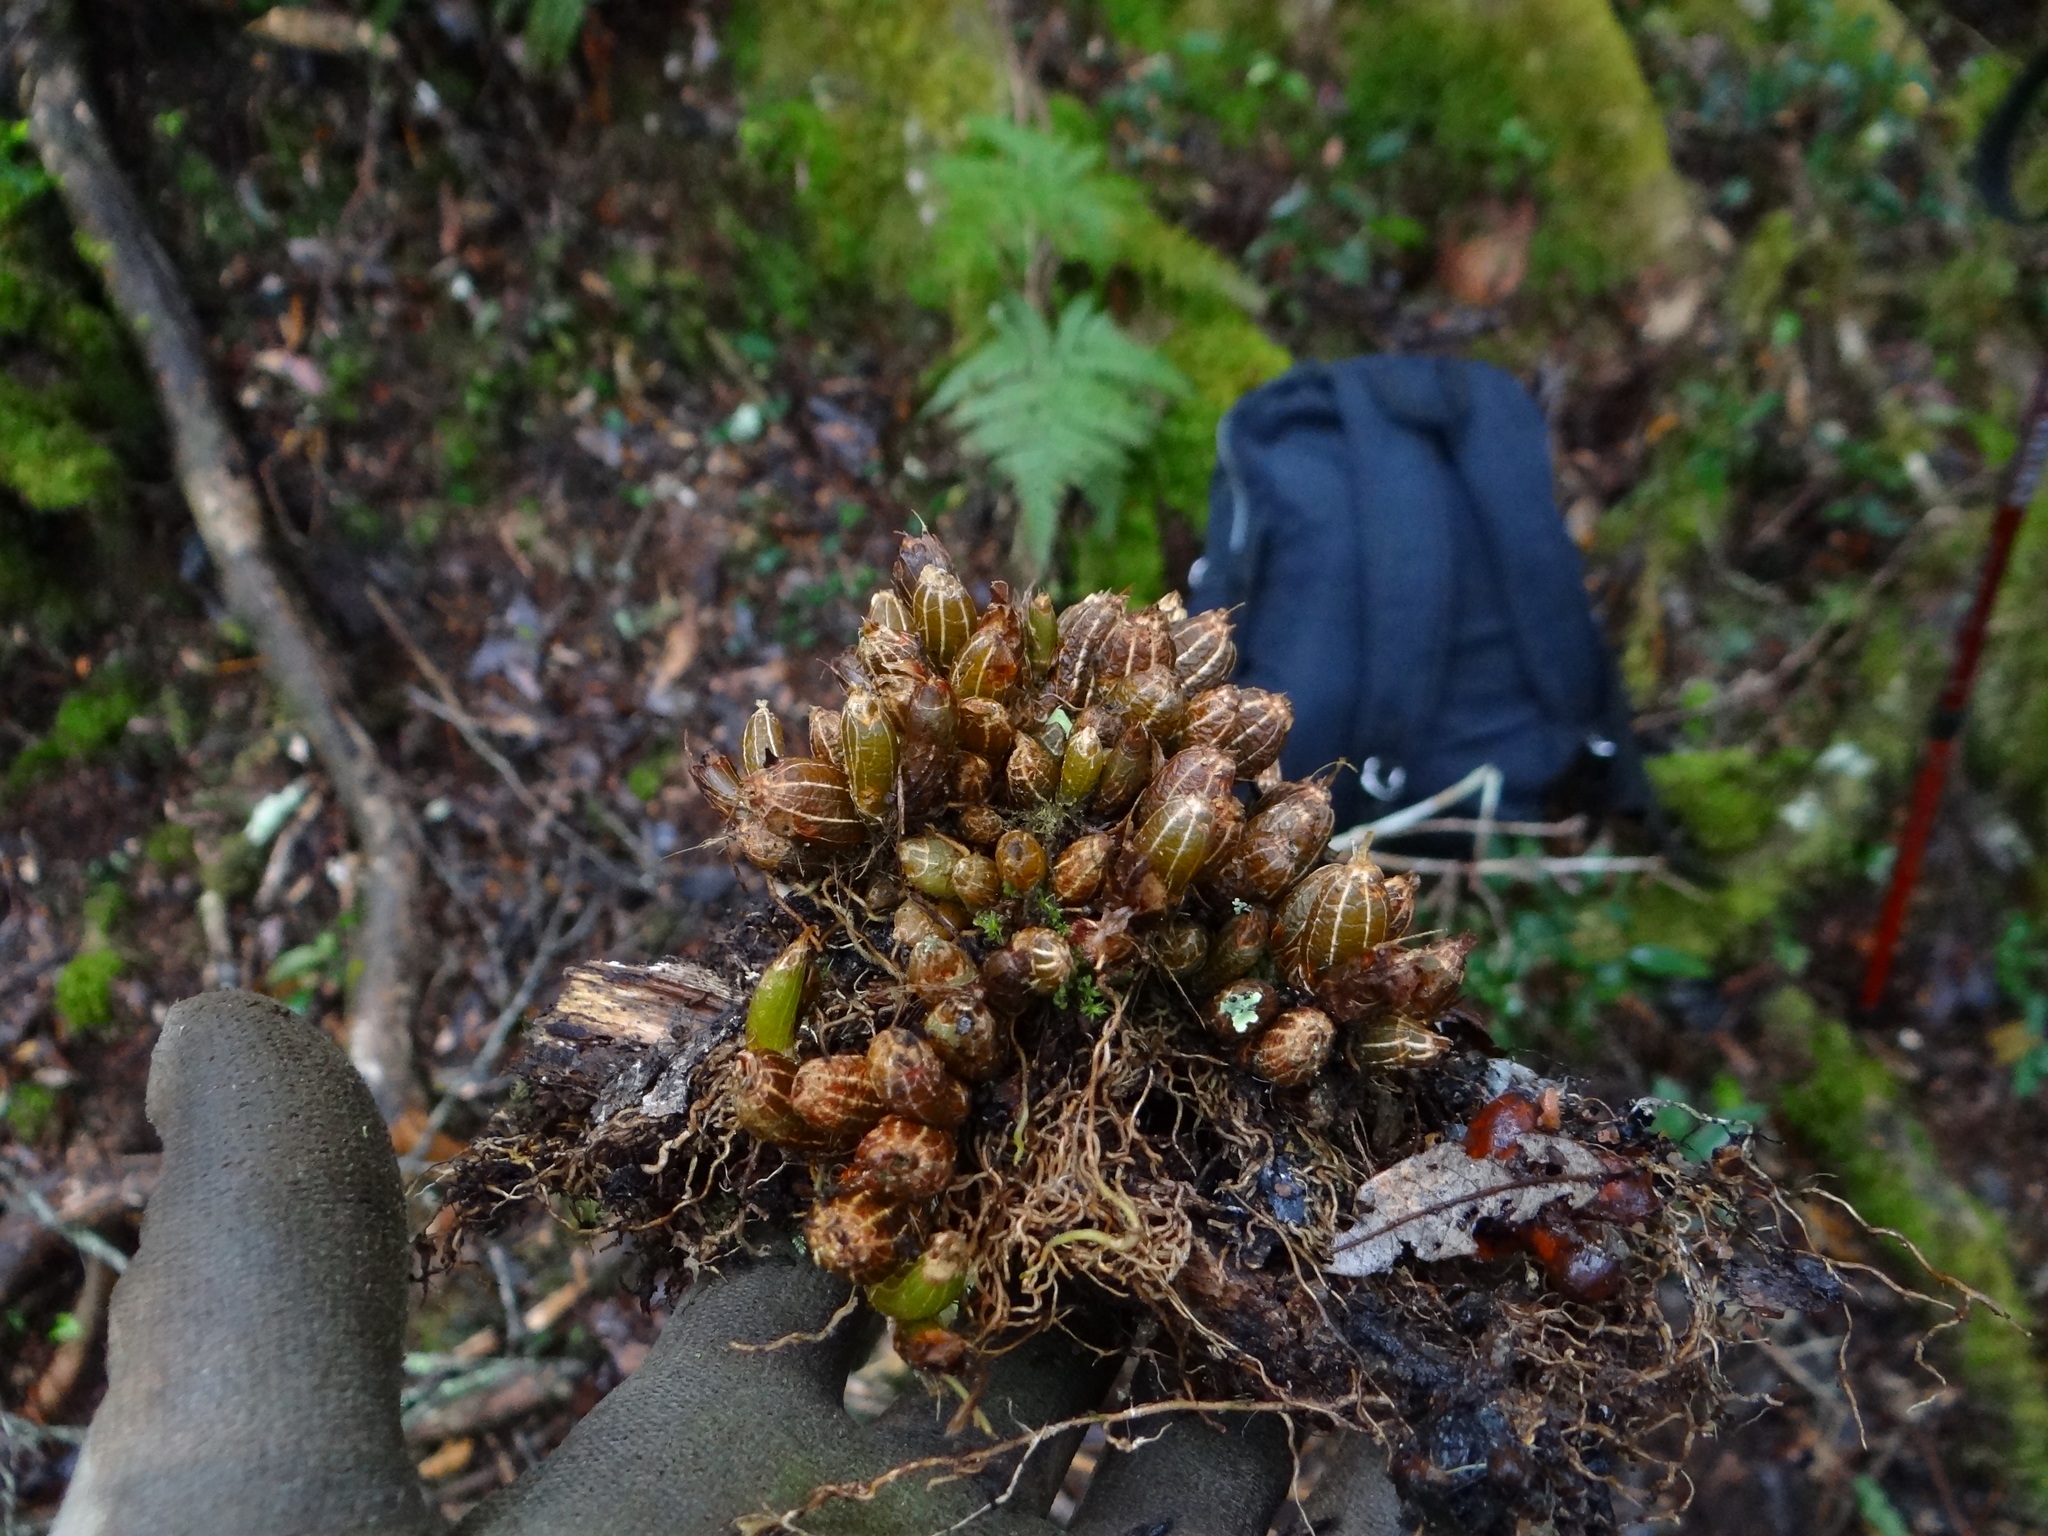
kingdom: Plantae
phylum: Tracheophyta
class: Liliopsida
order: Asparagales
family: Orchidaceae
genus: Pinalia
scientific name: Pinalia japonica
